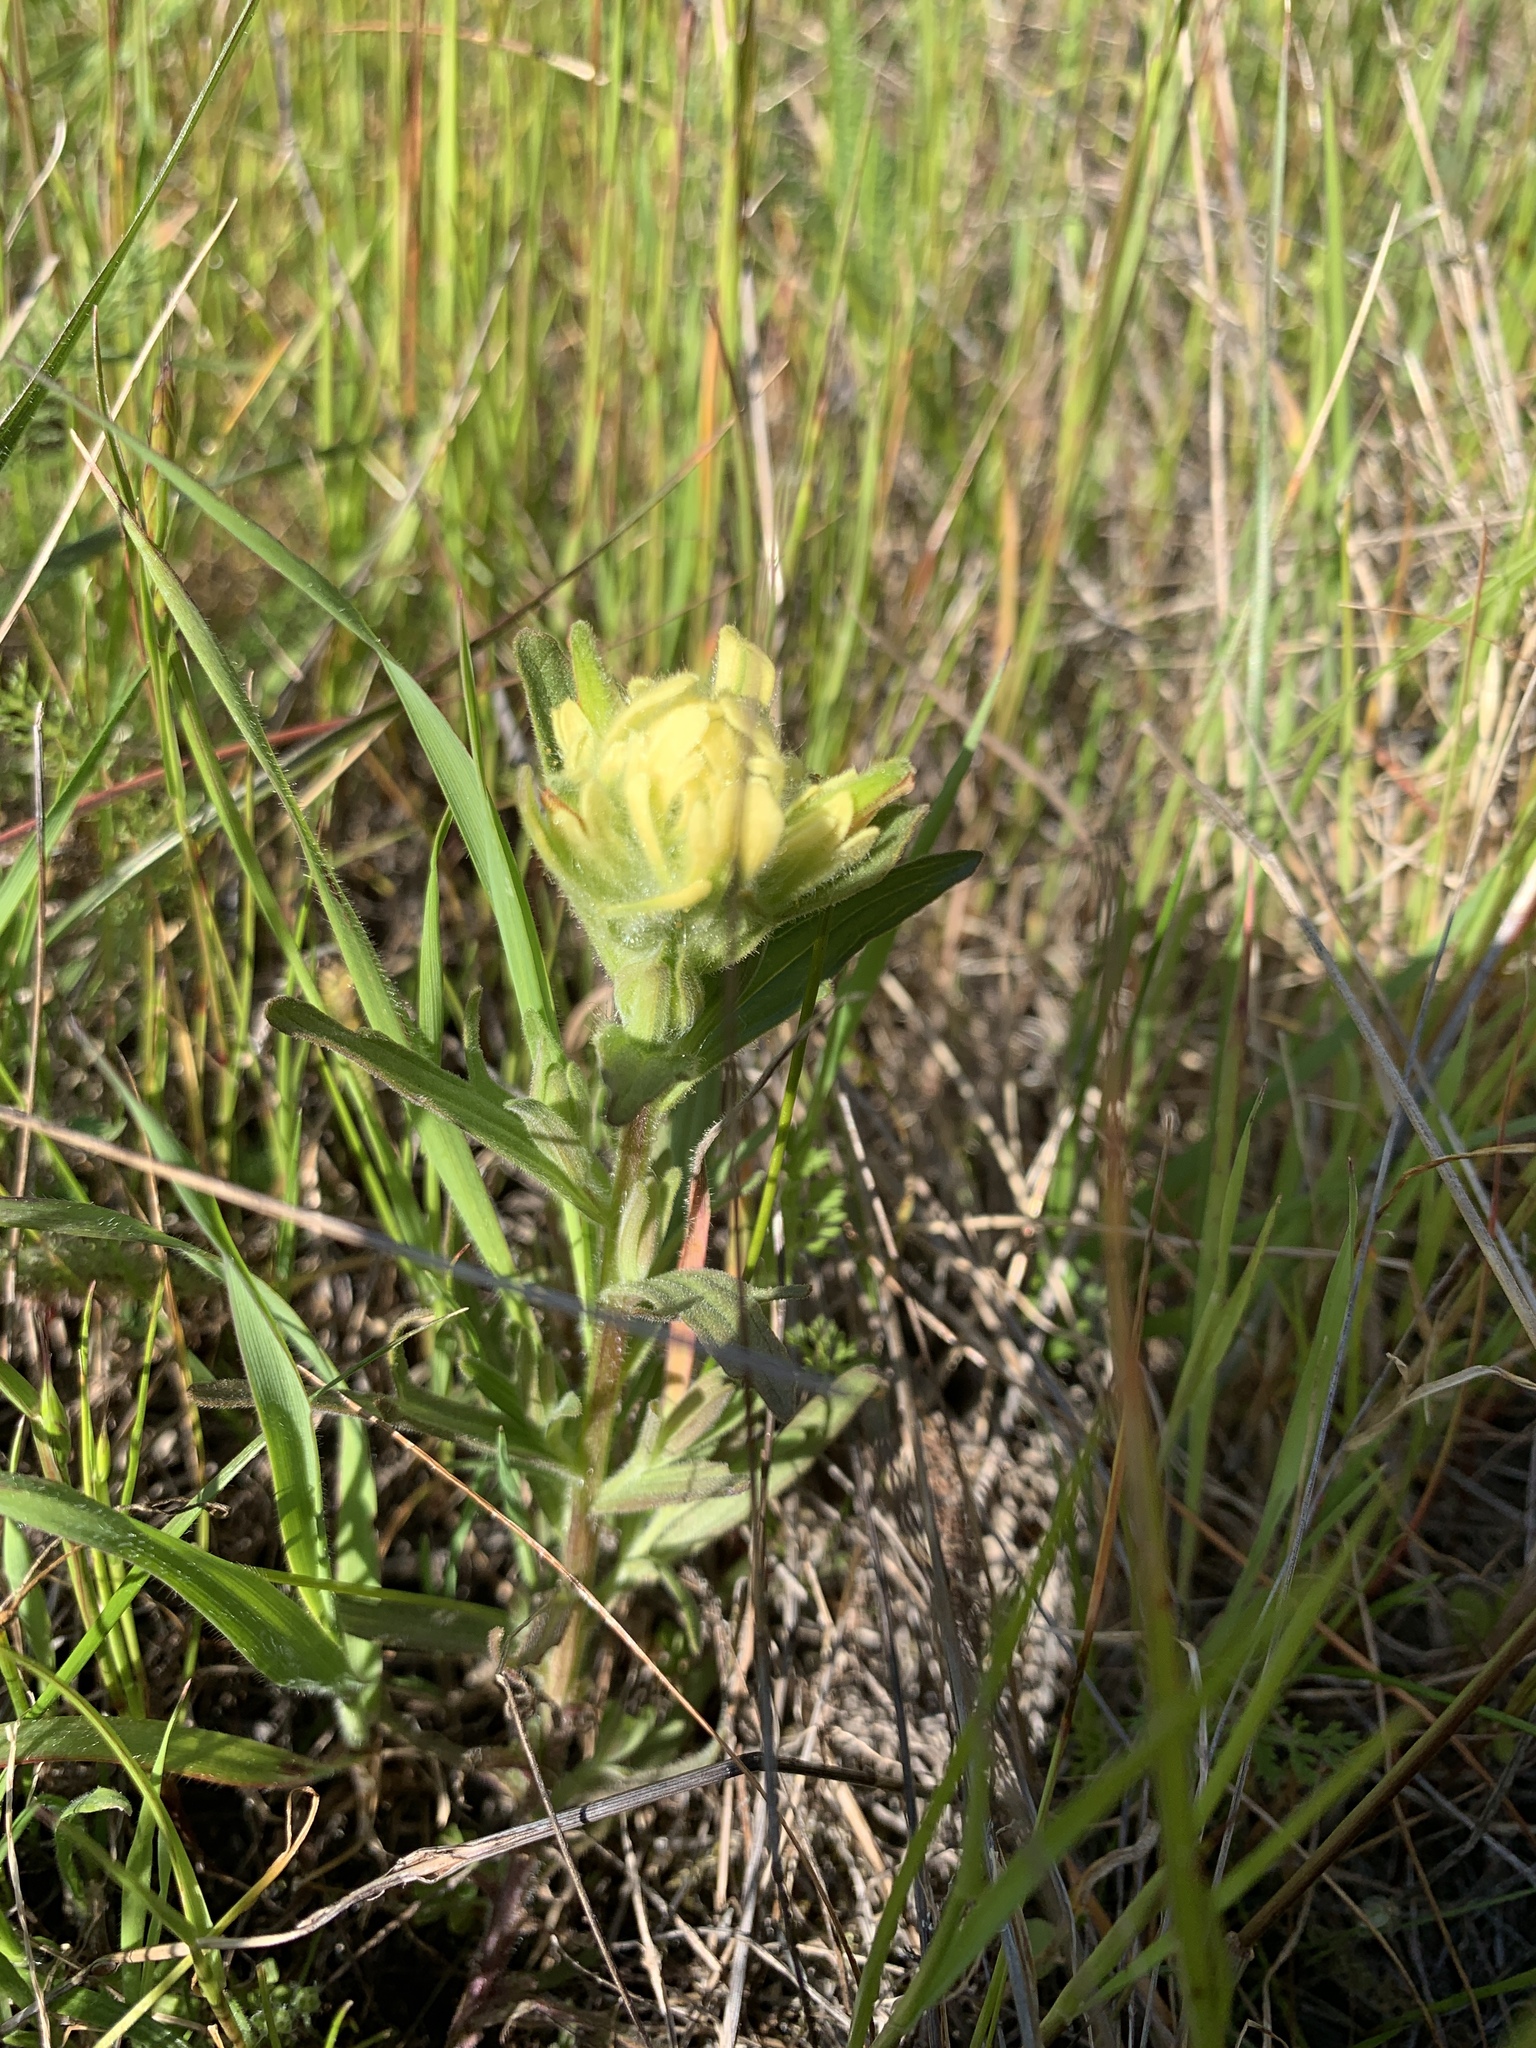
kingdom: Plantae
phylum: Tracheophyta
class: Magnoliopsida
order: Lamiales
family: Orobanchaceae
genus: Castilleja
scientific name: Castilleja affinis
